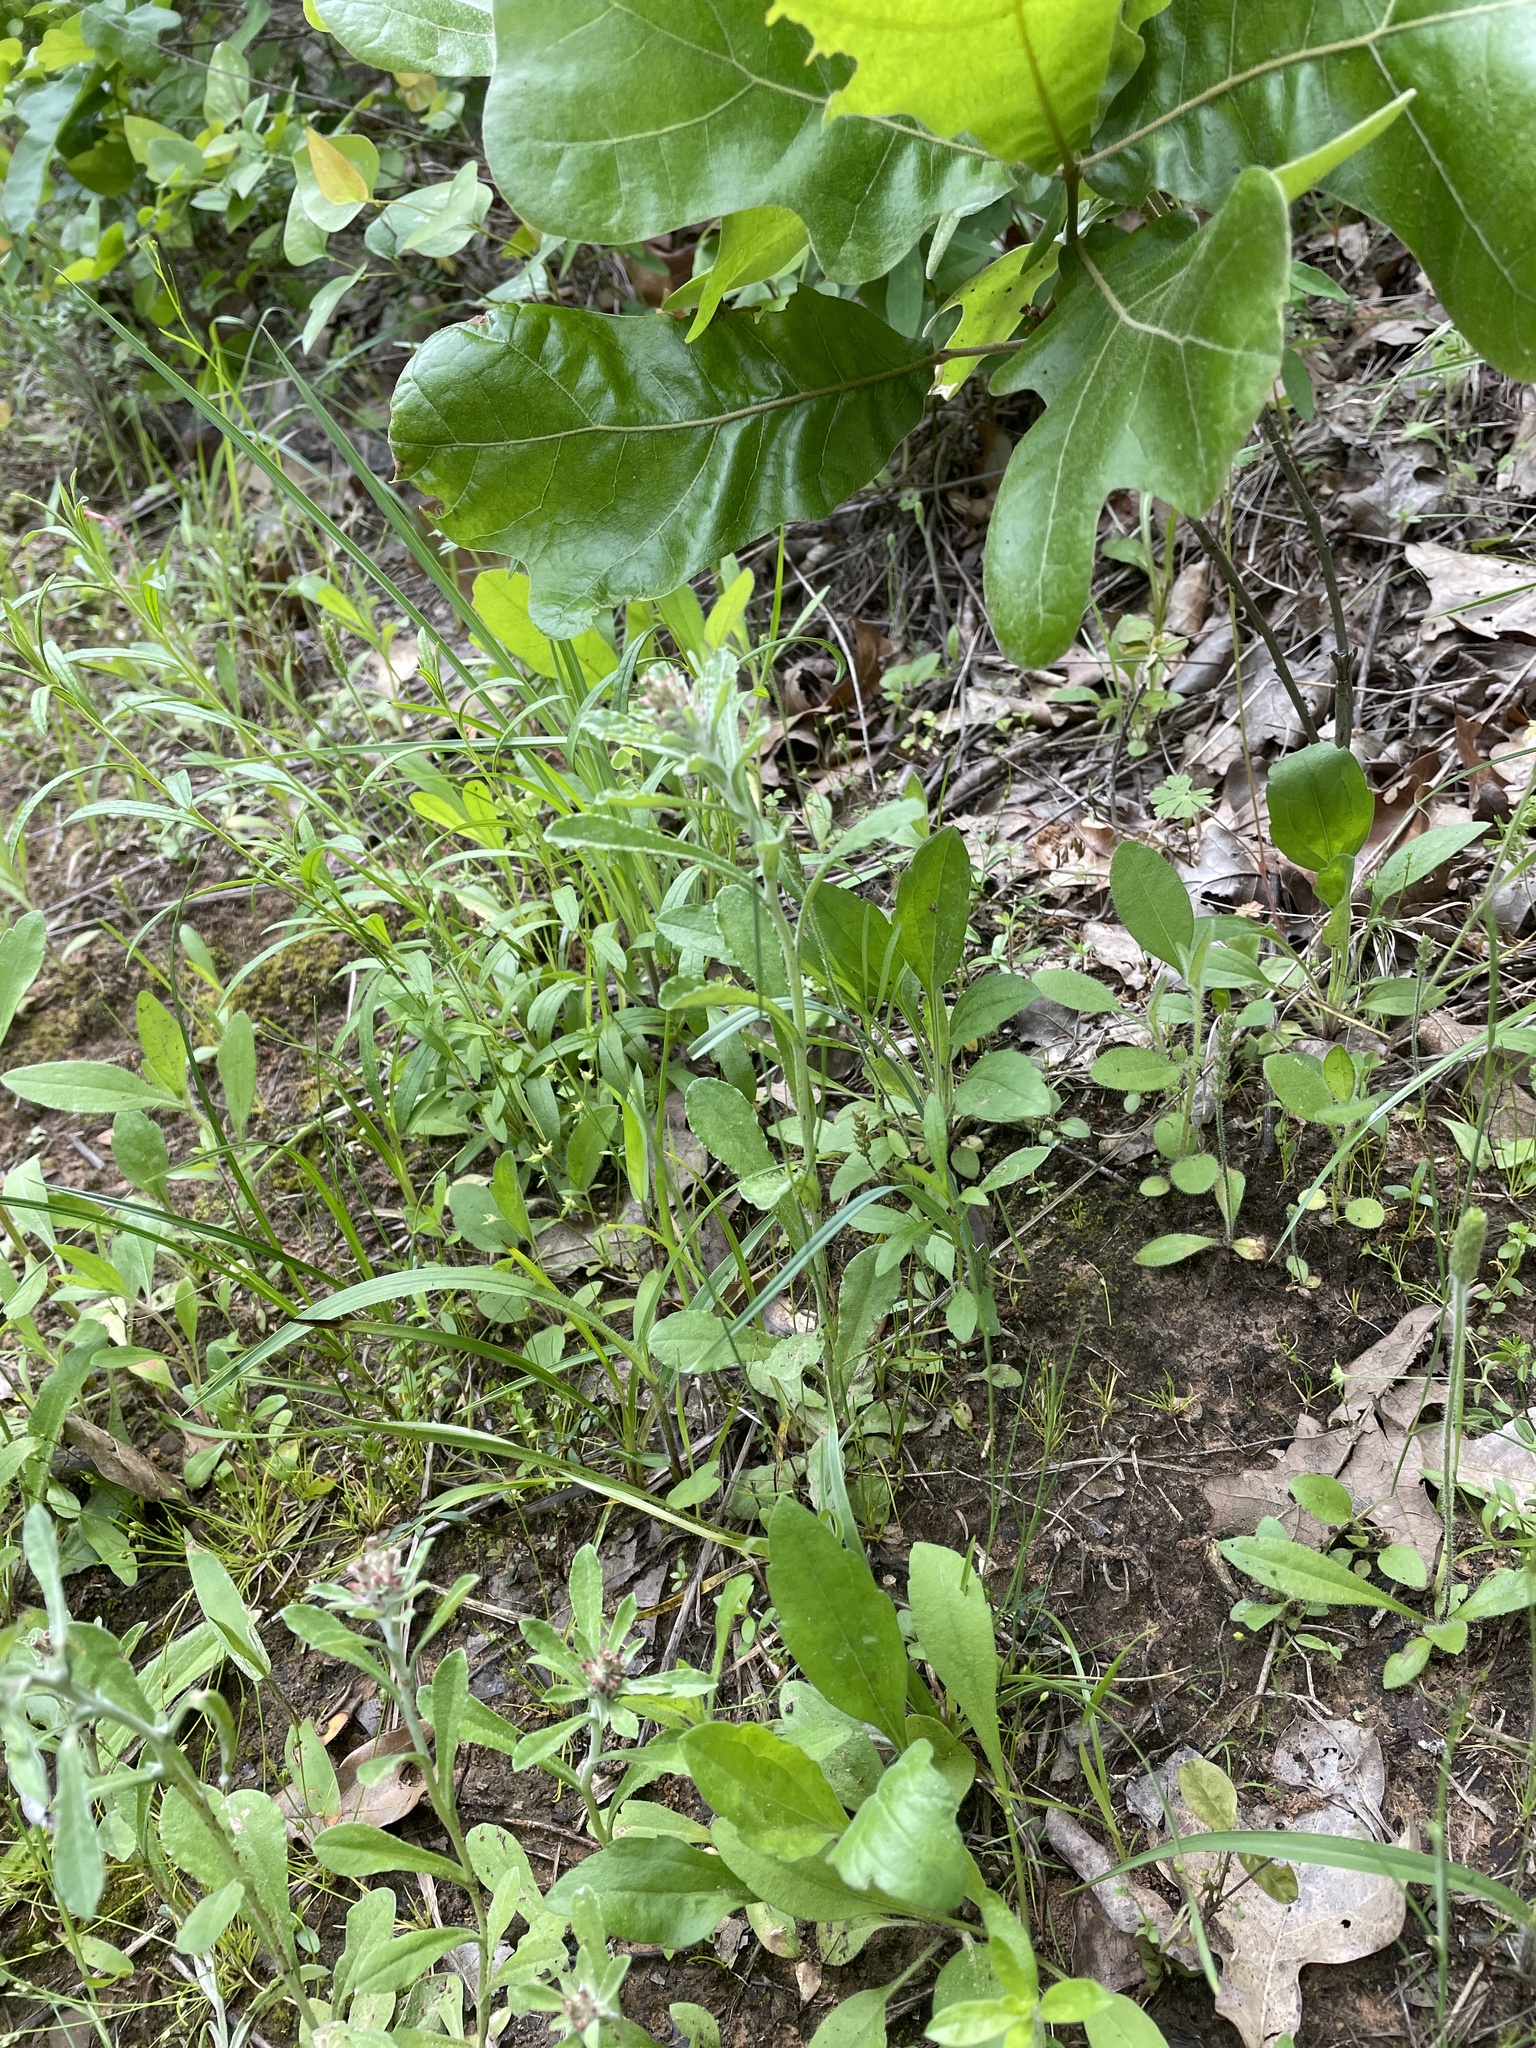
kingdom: Plantae
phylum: Tracheophyta
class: Magnoliopsida
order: Asterales
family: Asteraceae
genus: Gamochaeta
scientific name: Gamochaeta purpurea
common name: Purple cudweed
